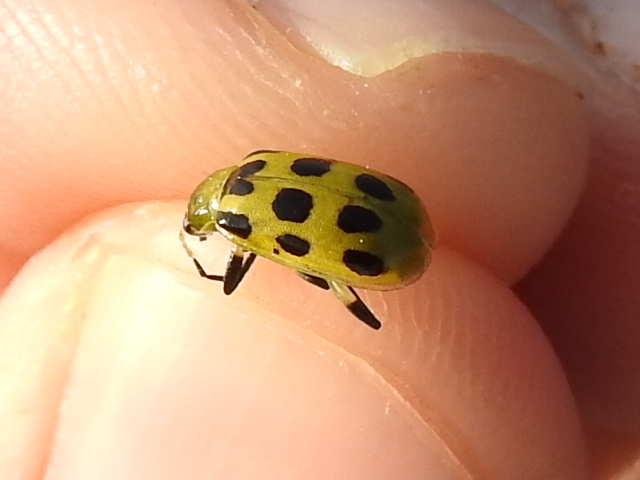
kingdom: Animalia
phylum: Arthropoda
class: Insecta
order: Coleoptera
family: Chrysomelidae
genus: Diabrotica
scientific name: Diabrotica undecimpunctata
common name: Spotted cucumber beetle
